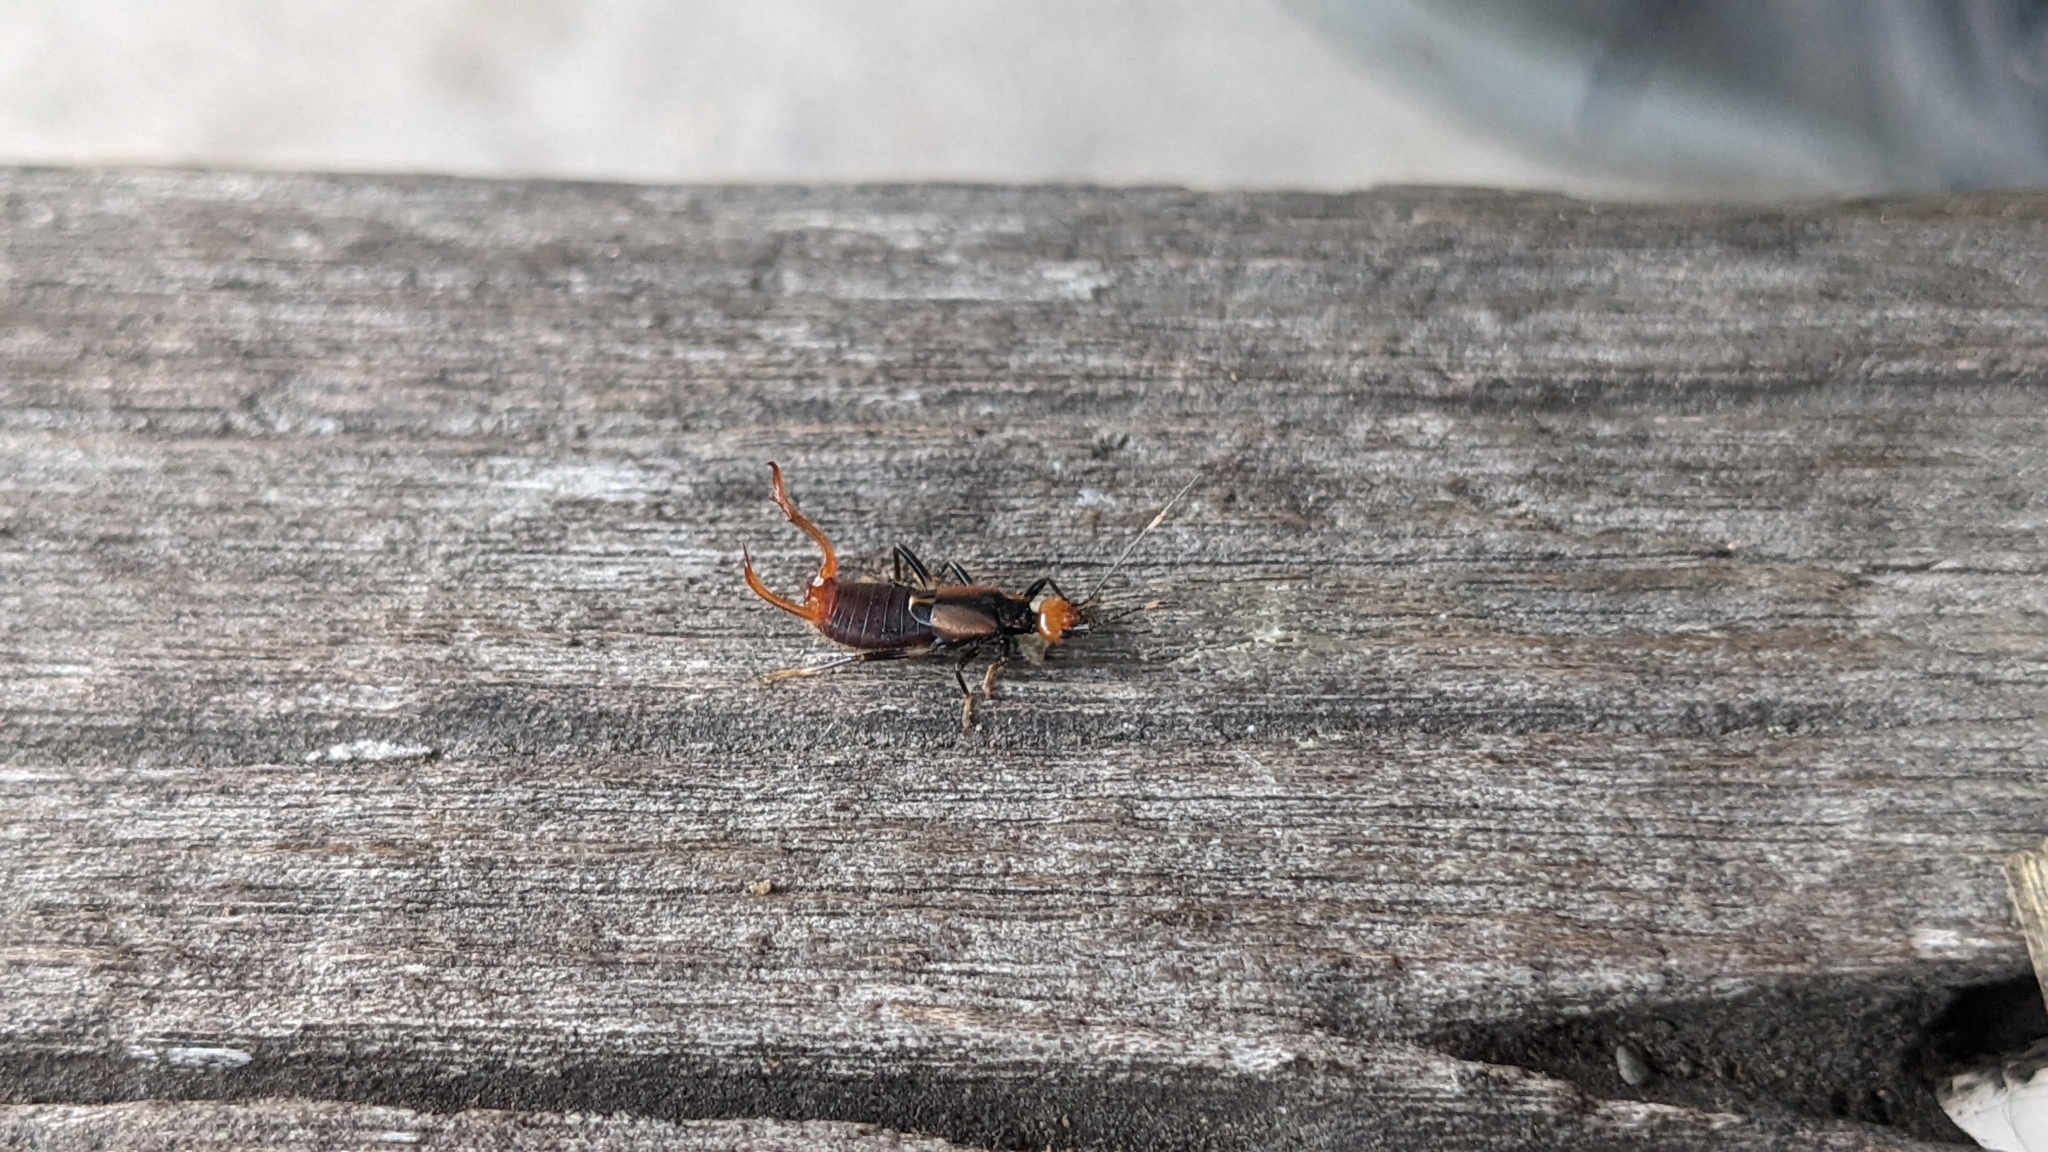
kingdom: Animalia
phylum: Arthropoda
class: Insecta
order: Dermaptera
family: Forficulidae
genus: Anechura
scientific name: Anechura crinitata
